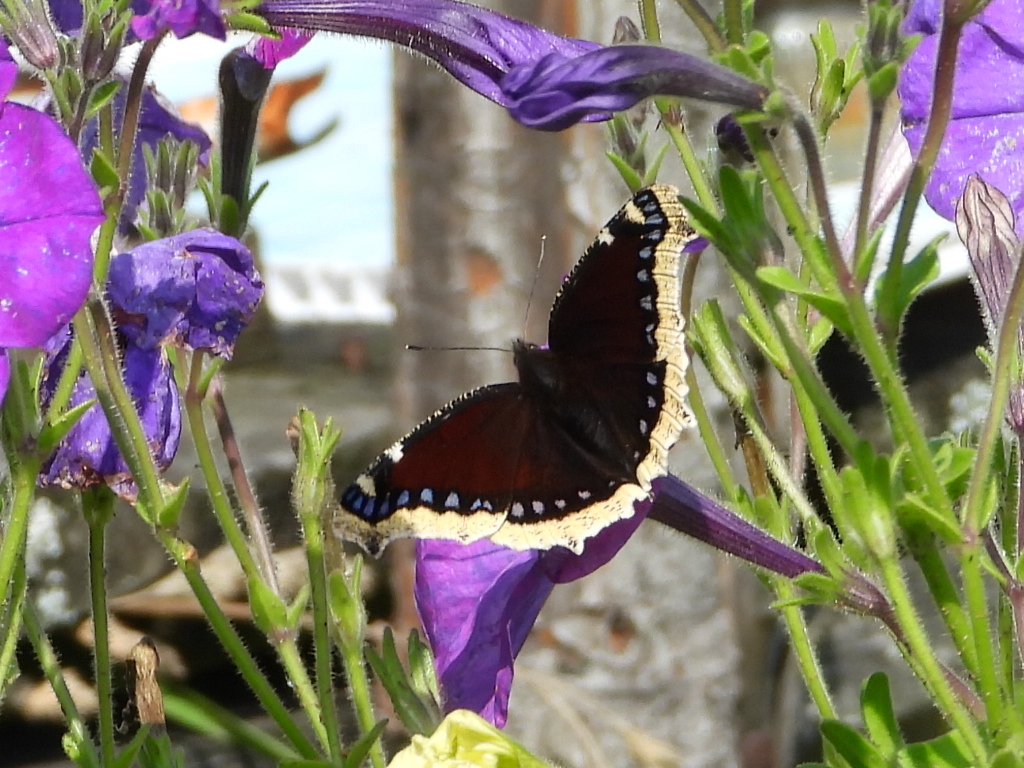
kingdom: Animalia
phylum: Arthropoda
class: Insecta
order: Lepidoptera
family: Nymphalidae
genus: Nymphalis
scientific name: Nymphalis antiopa
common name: Camberwell beauty
